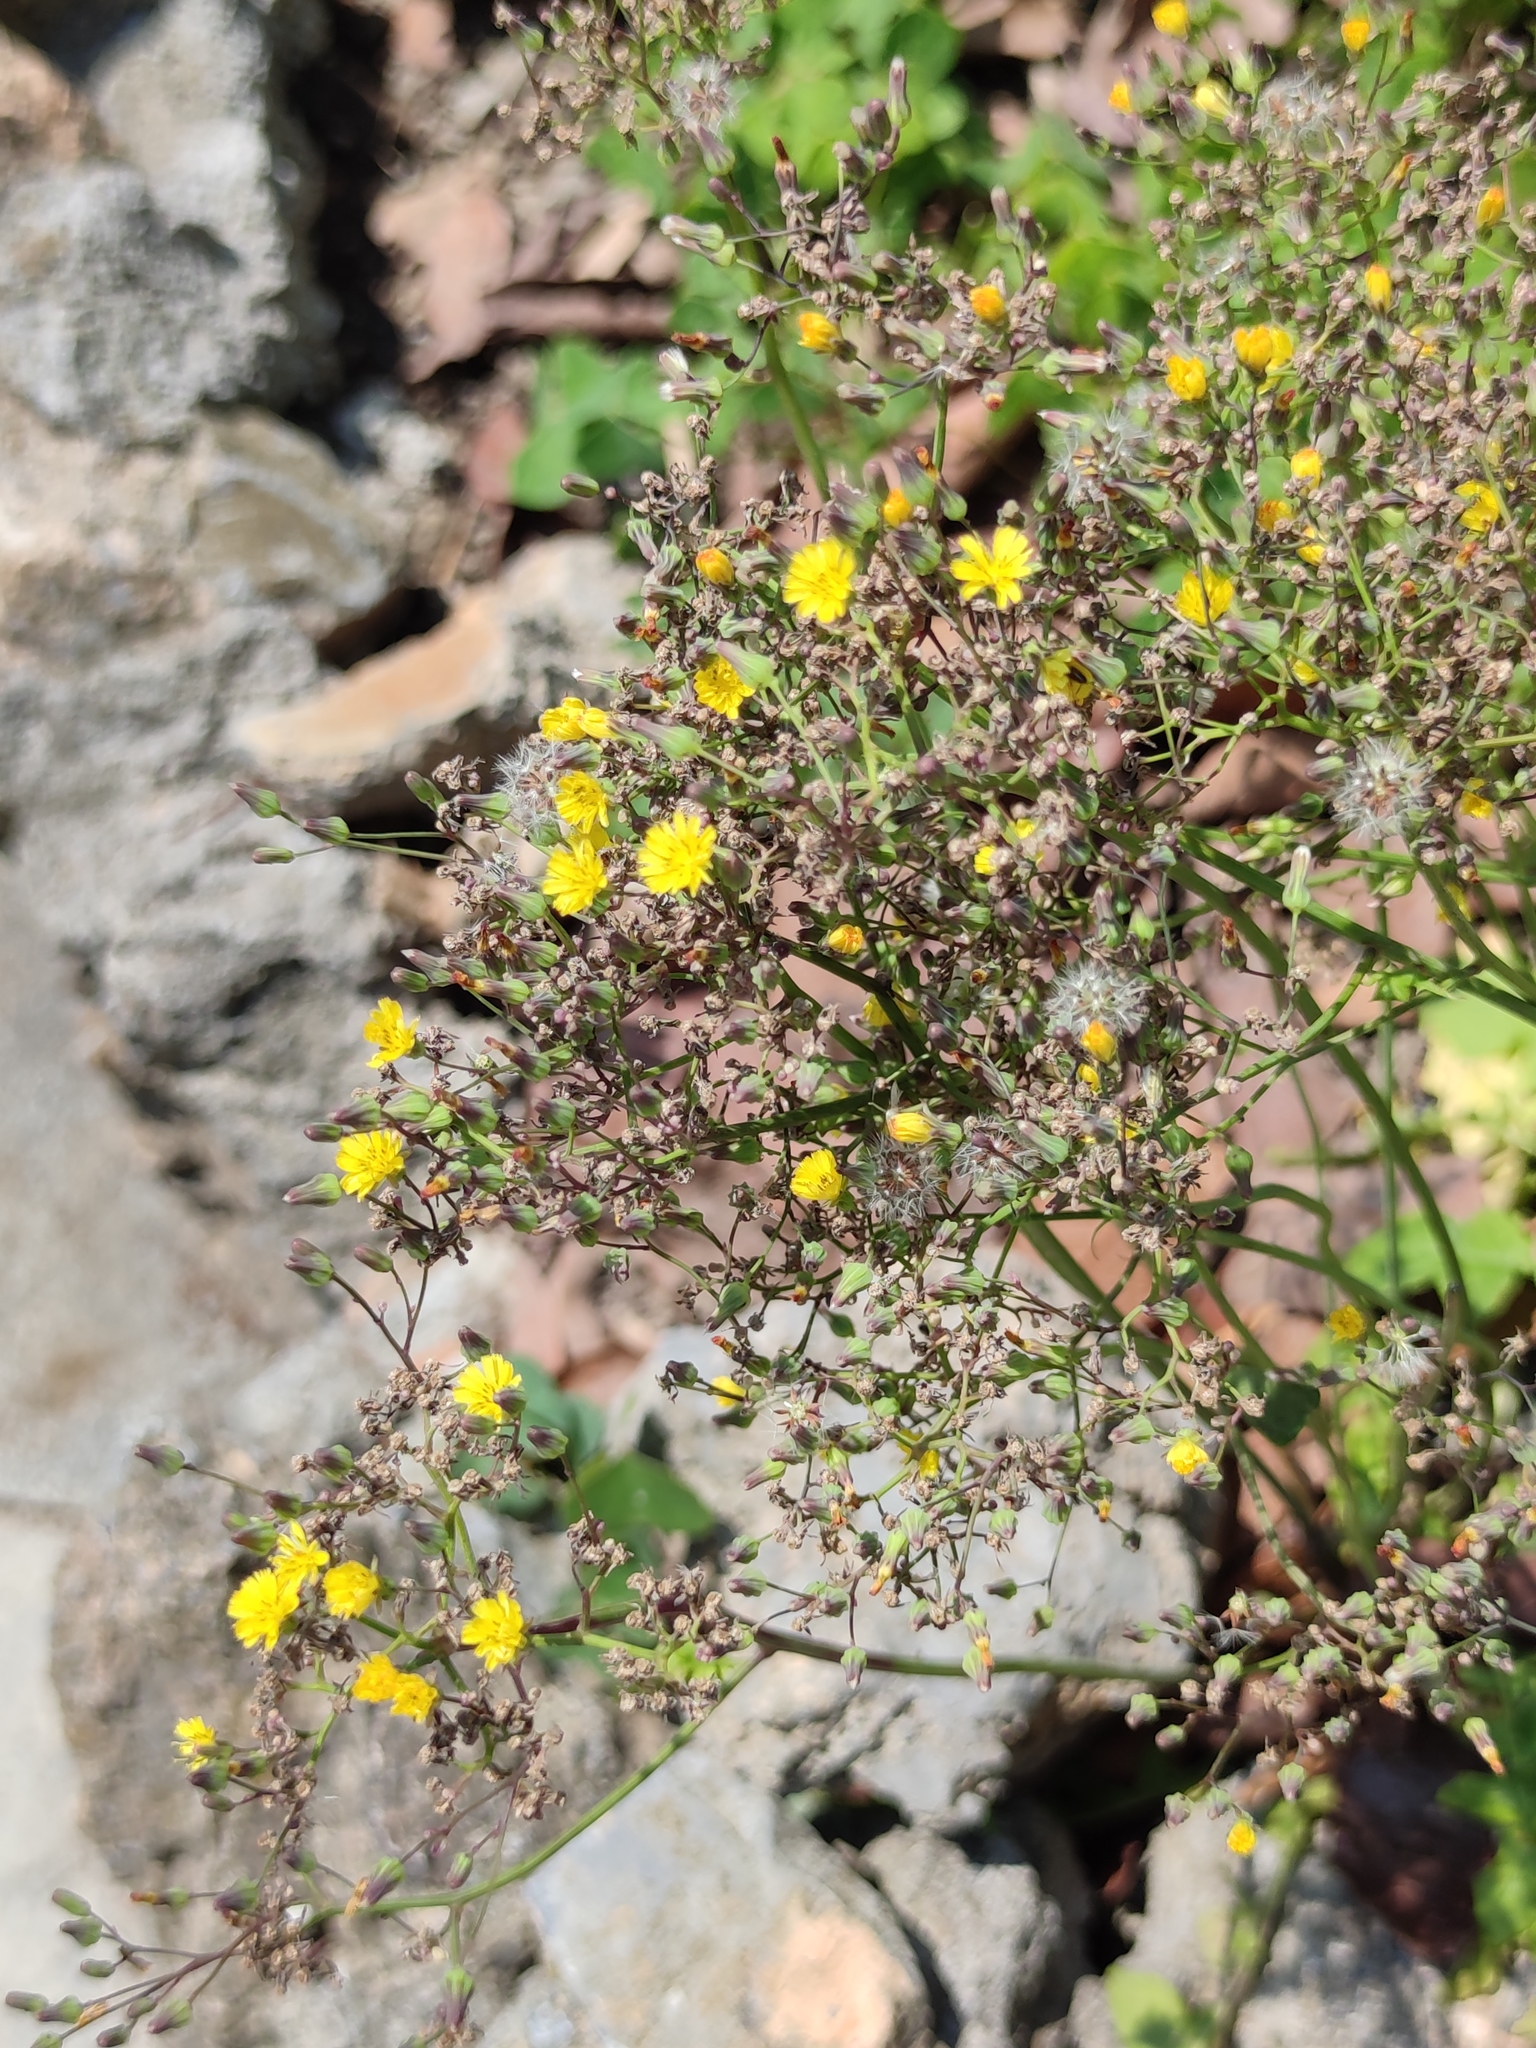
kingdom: Plantae
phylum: Tracheophyta
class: Magnoliopsida
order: Asterales
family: Asteraceae
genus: Youngia
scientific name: Youngia japonica
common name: Oriental false hawksbeard
